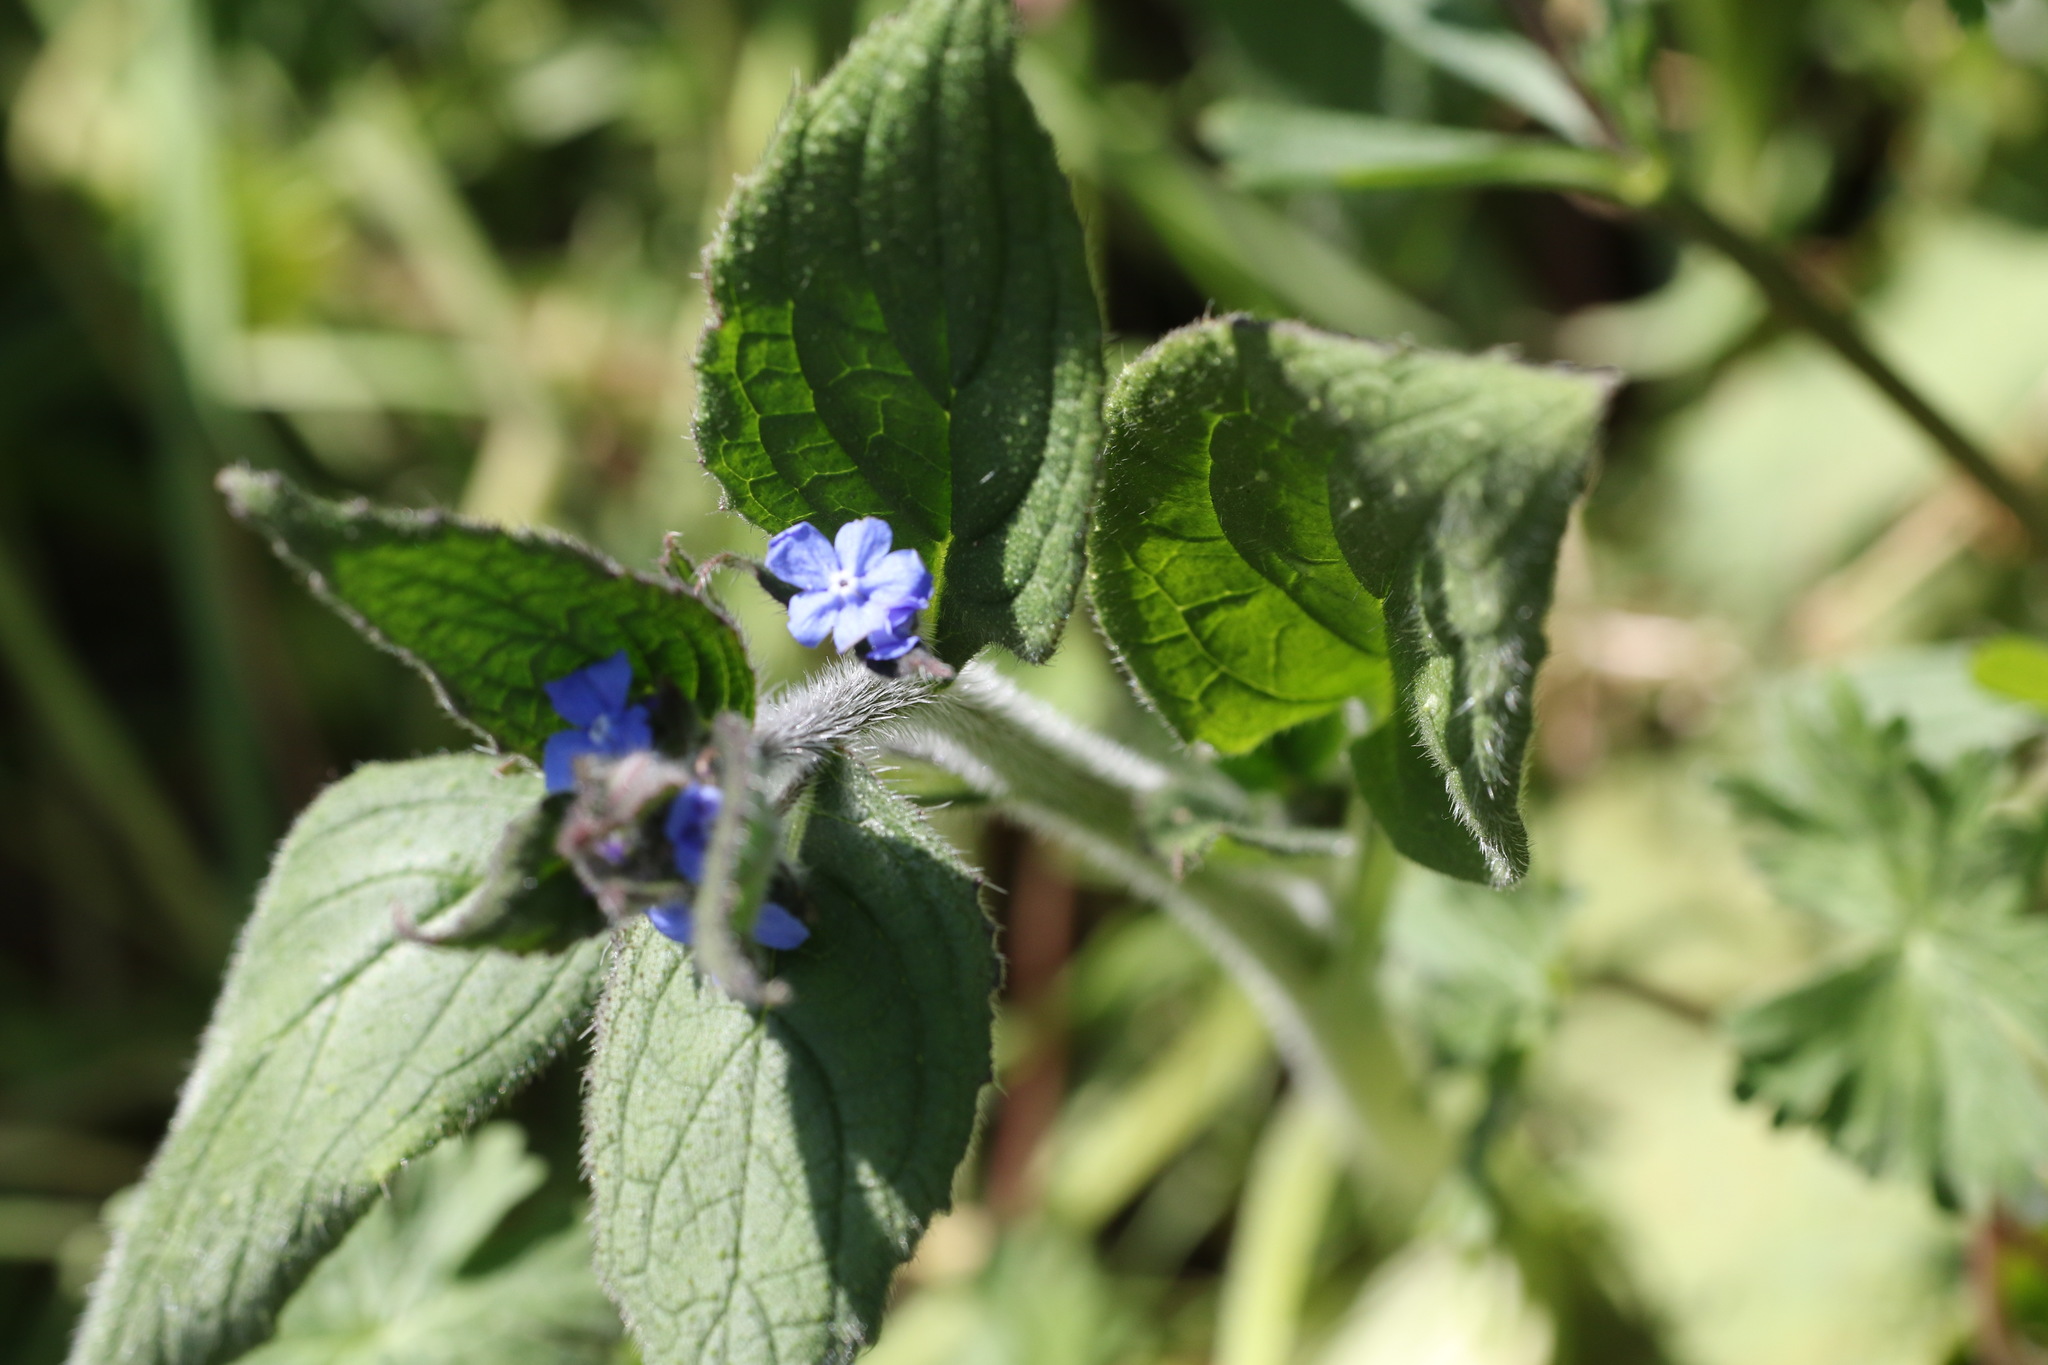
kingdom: Plantae
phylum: Tracheophyta
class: Magnoliopsida
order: Boraginales
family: Boraginaceae
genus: Pentaglottis
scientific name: Pentaglottis sempervirens
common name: Green alkanet
